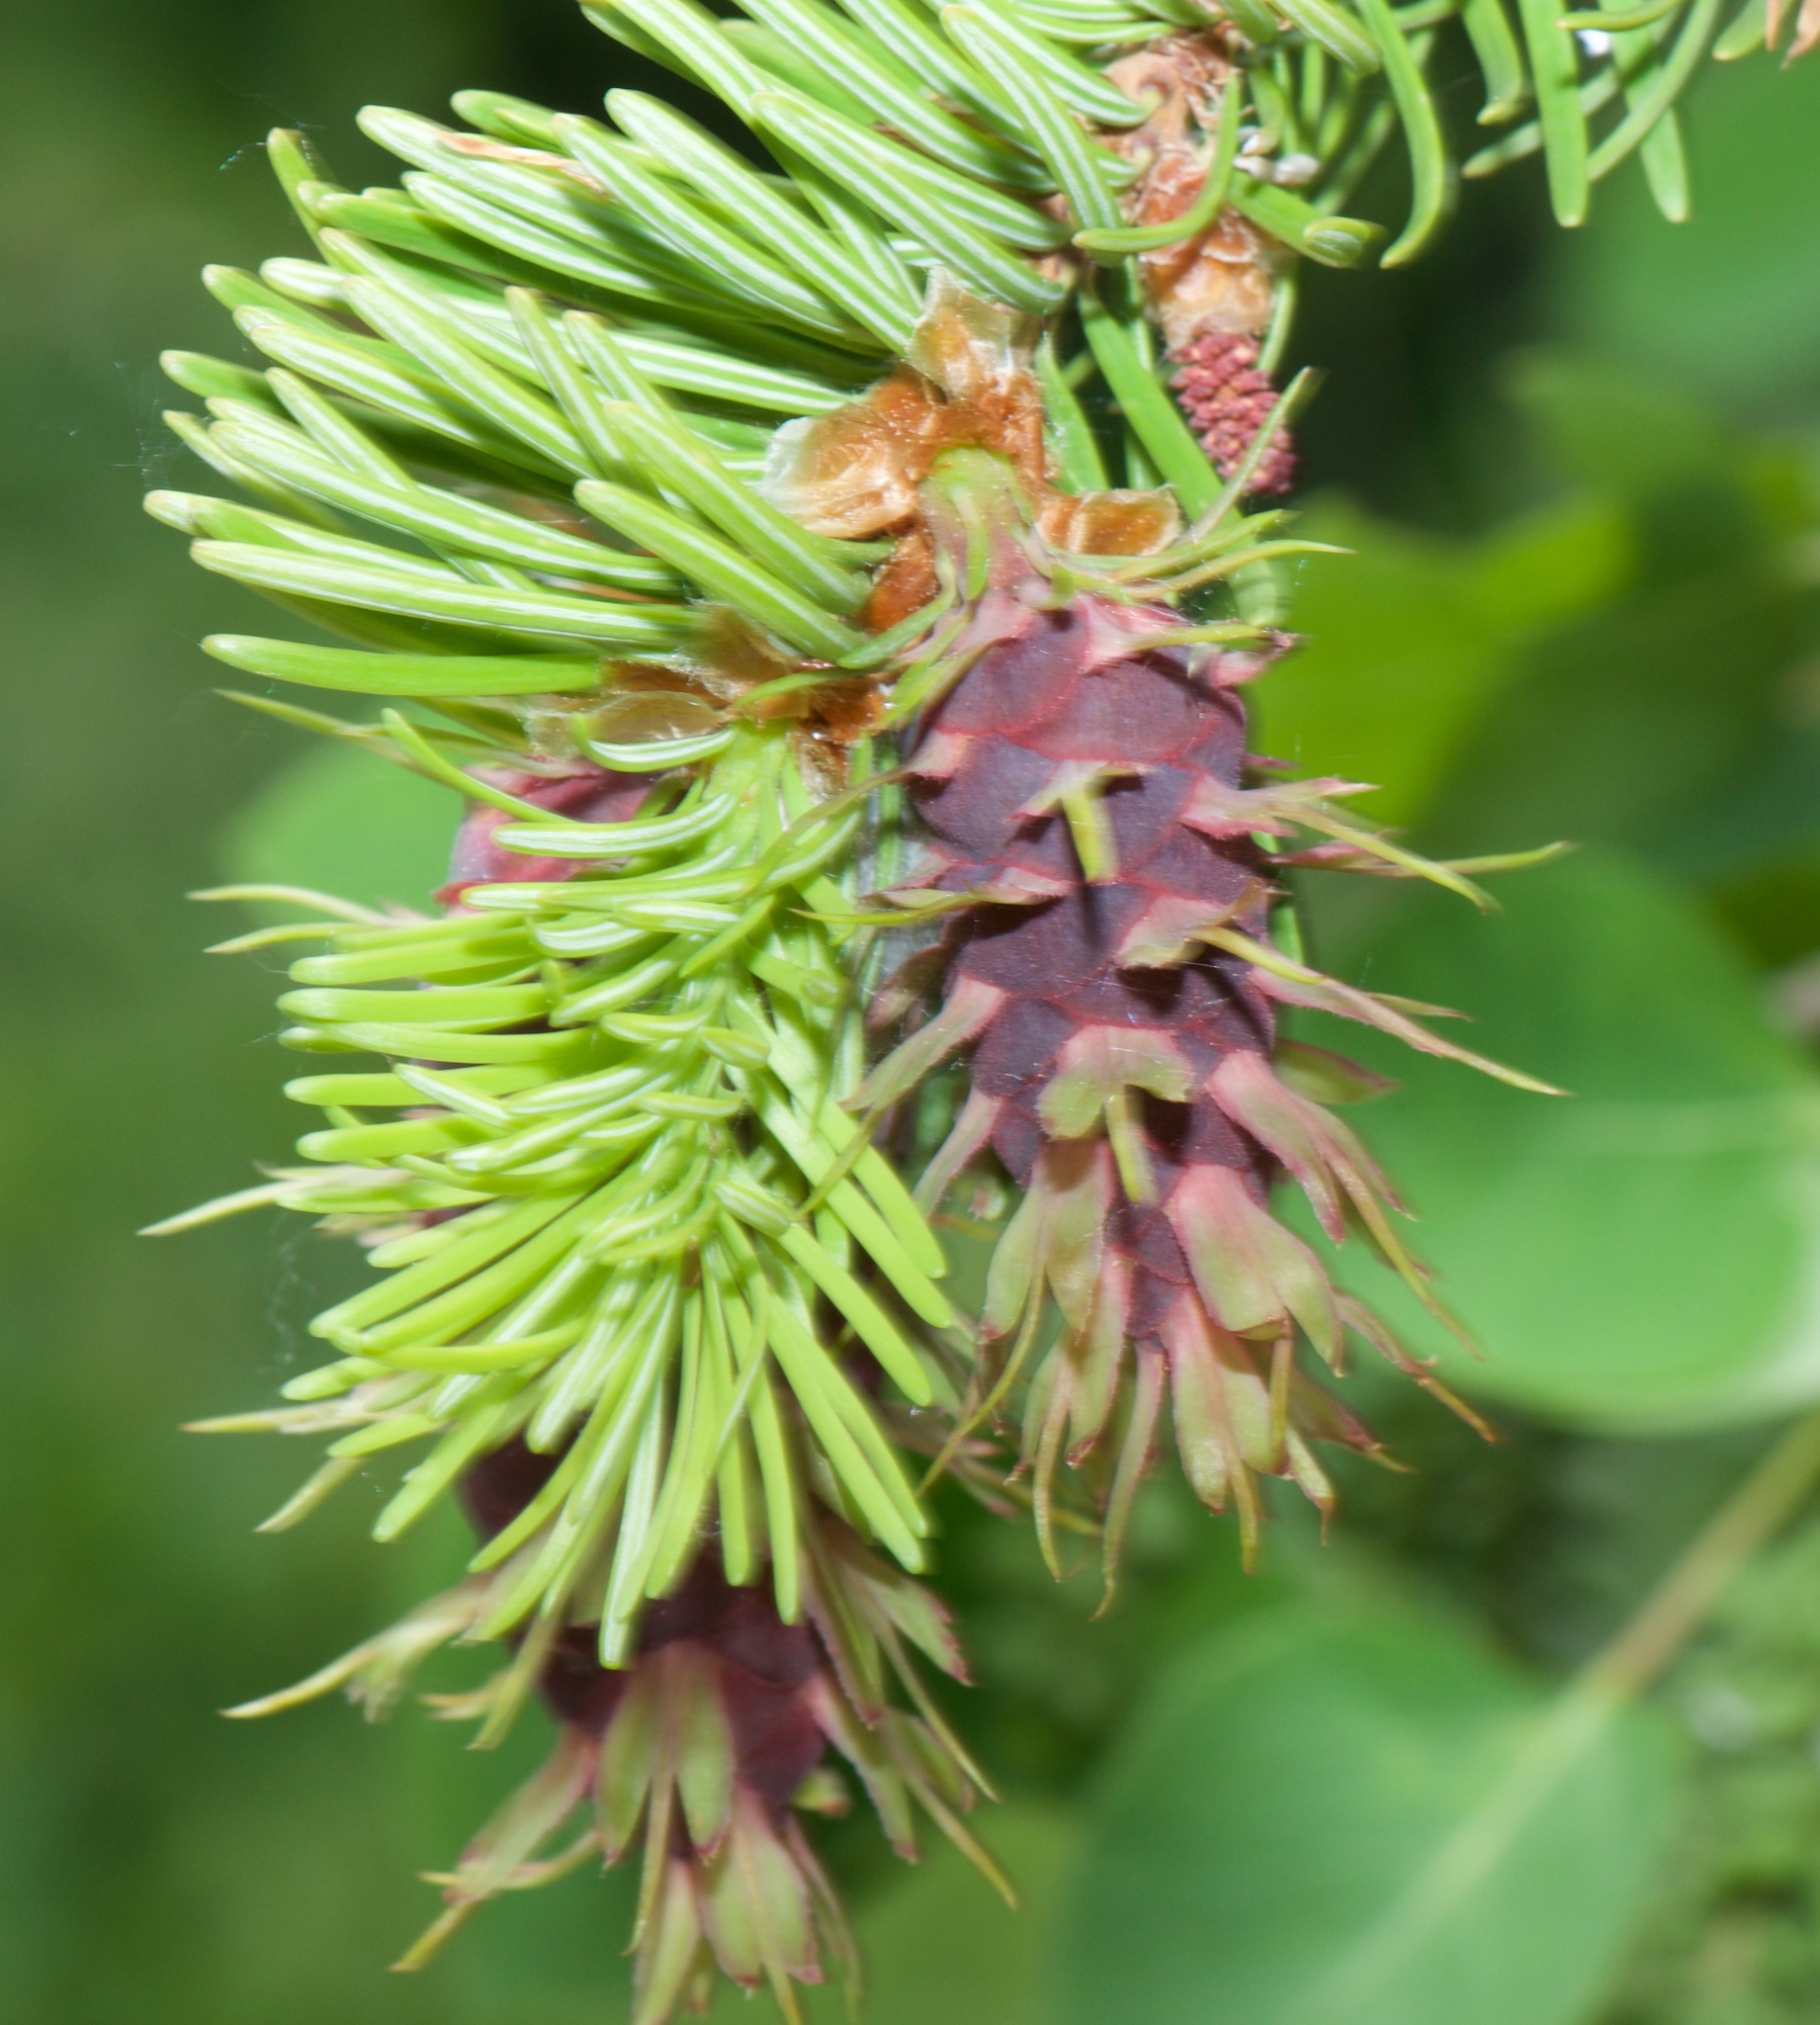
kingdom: Plantae
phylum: Tracheophyta
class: Pinopsida
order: Pinales
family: Pinaceae
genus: Pseudotsuga
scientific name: Pseudotsuga menziesii
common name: Douglas fir
